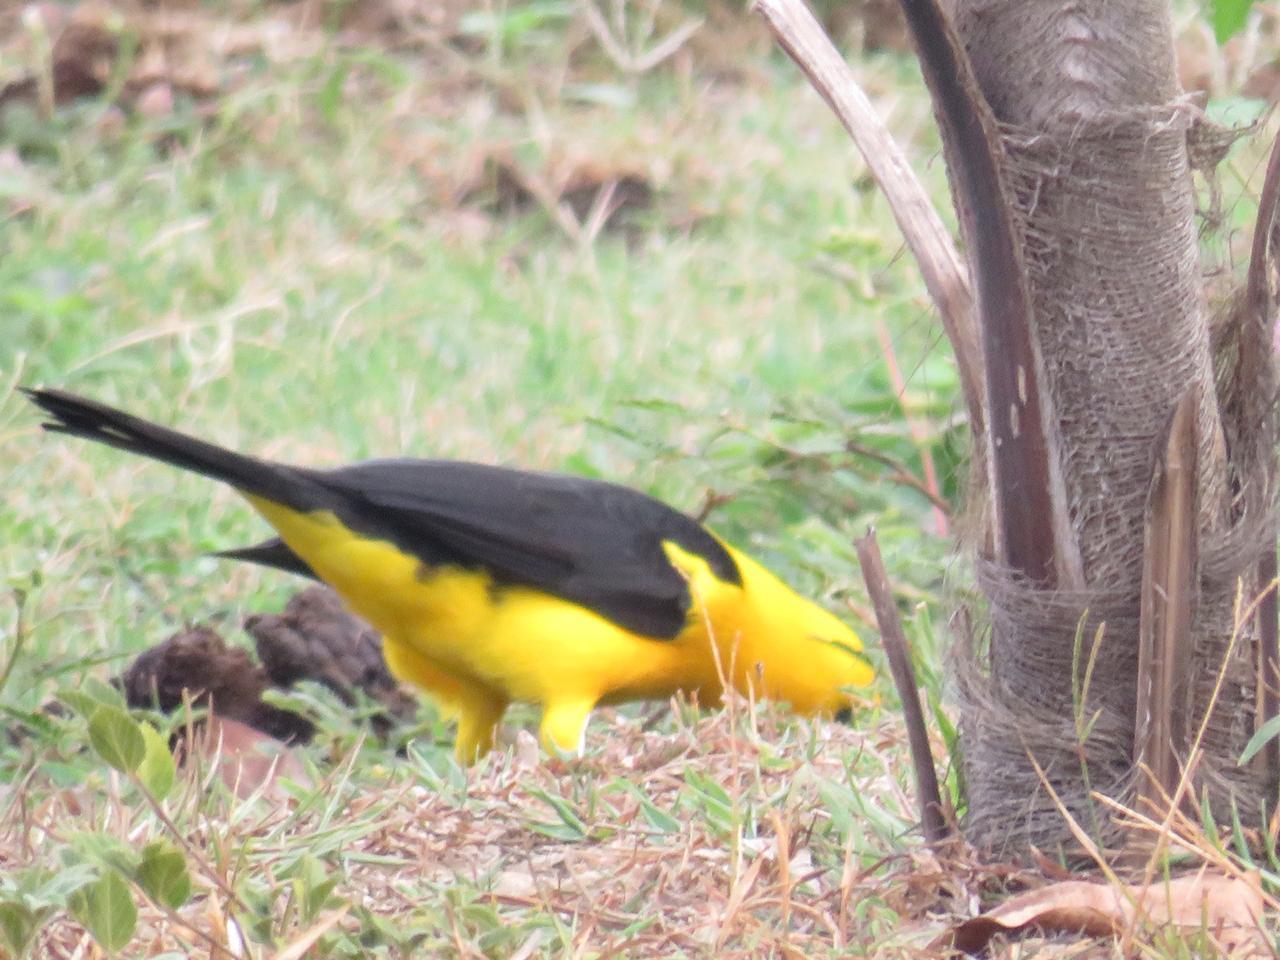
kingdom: Animalia
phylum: Chordata
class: Aves
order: Passeriformes
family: Icteridae
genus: Gymnomystax
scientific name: Gymnomystax mexicanus
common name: Oriole blackbird
